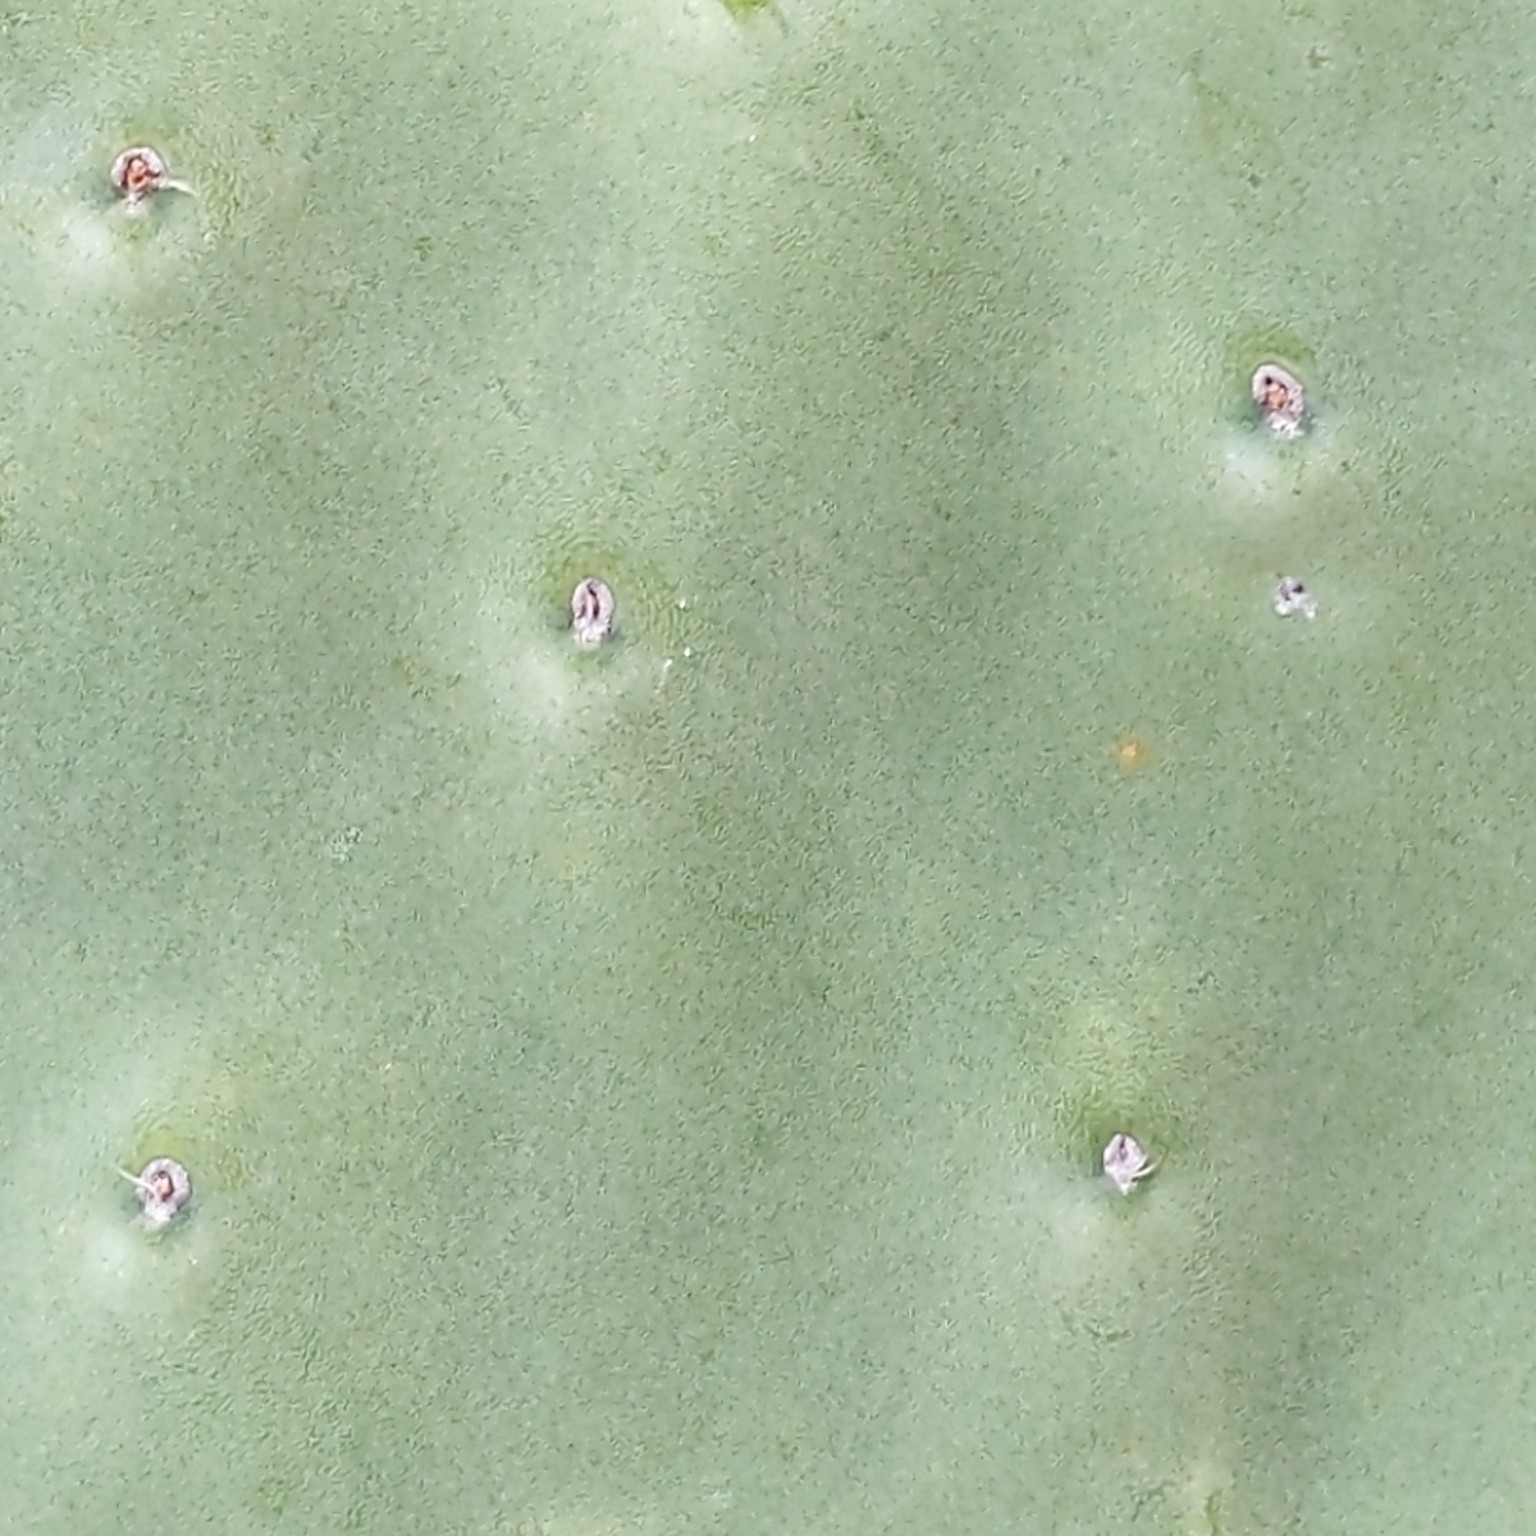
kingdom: Plantae
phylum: Tracheophyta
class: Magnoliopsida
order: Caryophyllales
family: Cactaceae
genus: Opuntia
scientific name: Opuntia ficus-indica
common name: Barbary fig
